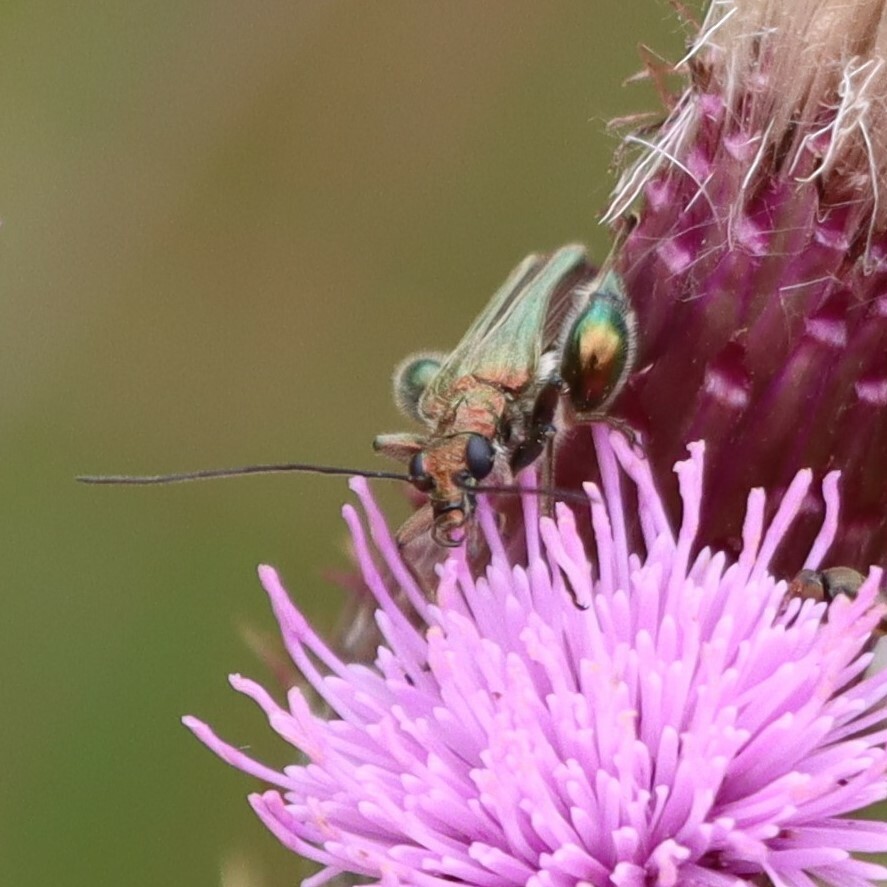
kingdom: Animalia
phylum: Arthropoda
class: Insecta
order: Coleoptera
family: Oedemeridae
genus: Oedemera
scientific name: Oedemera nobilis
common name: Swollen-thighed beetle
